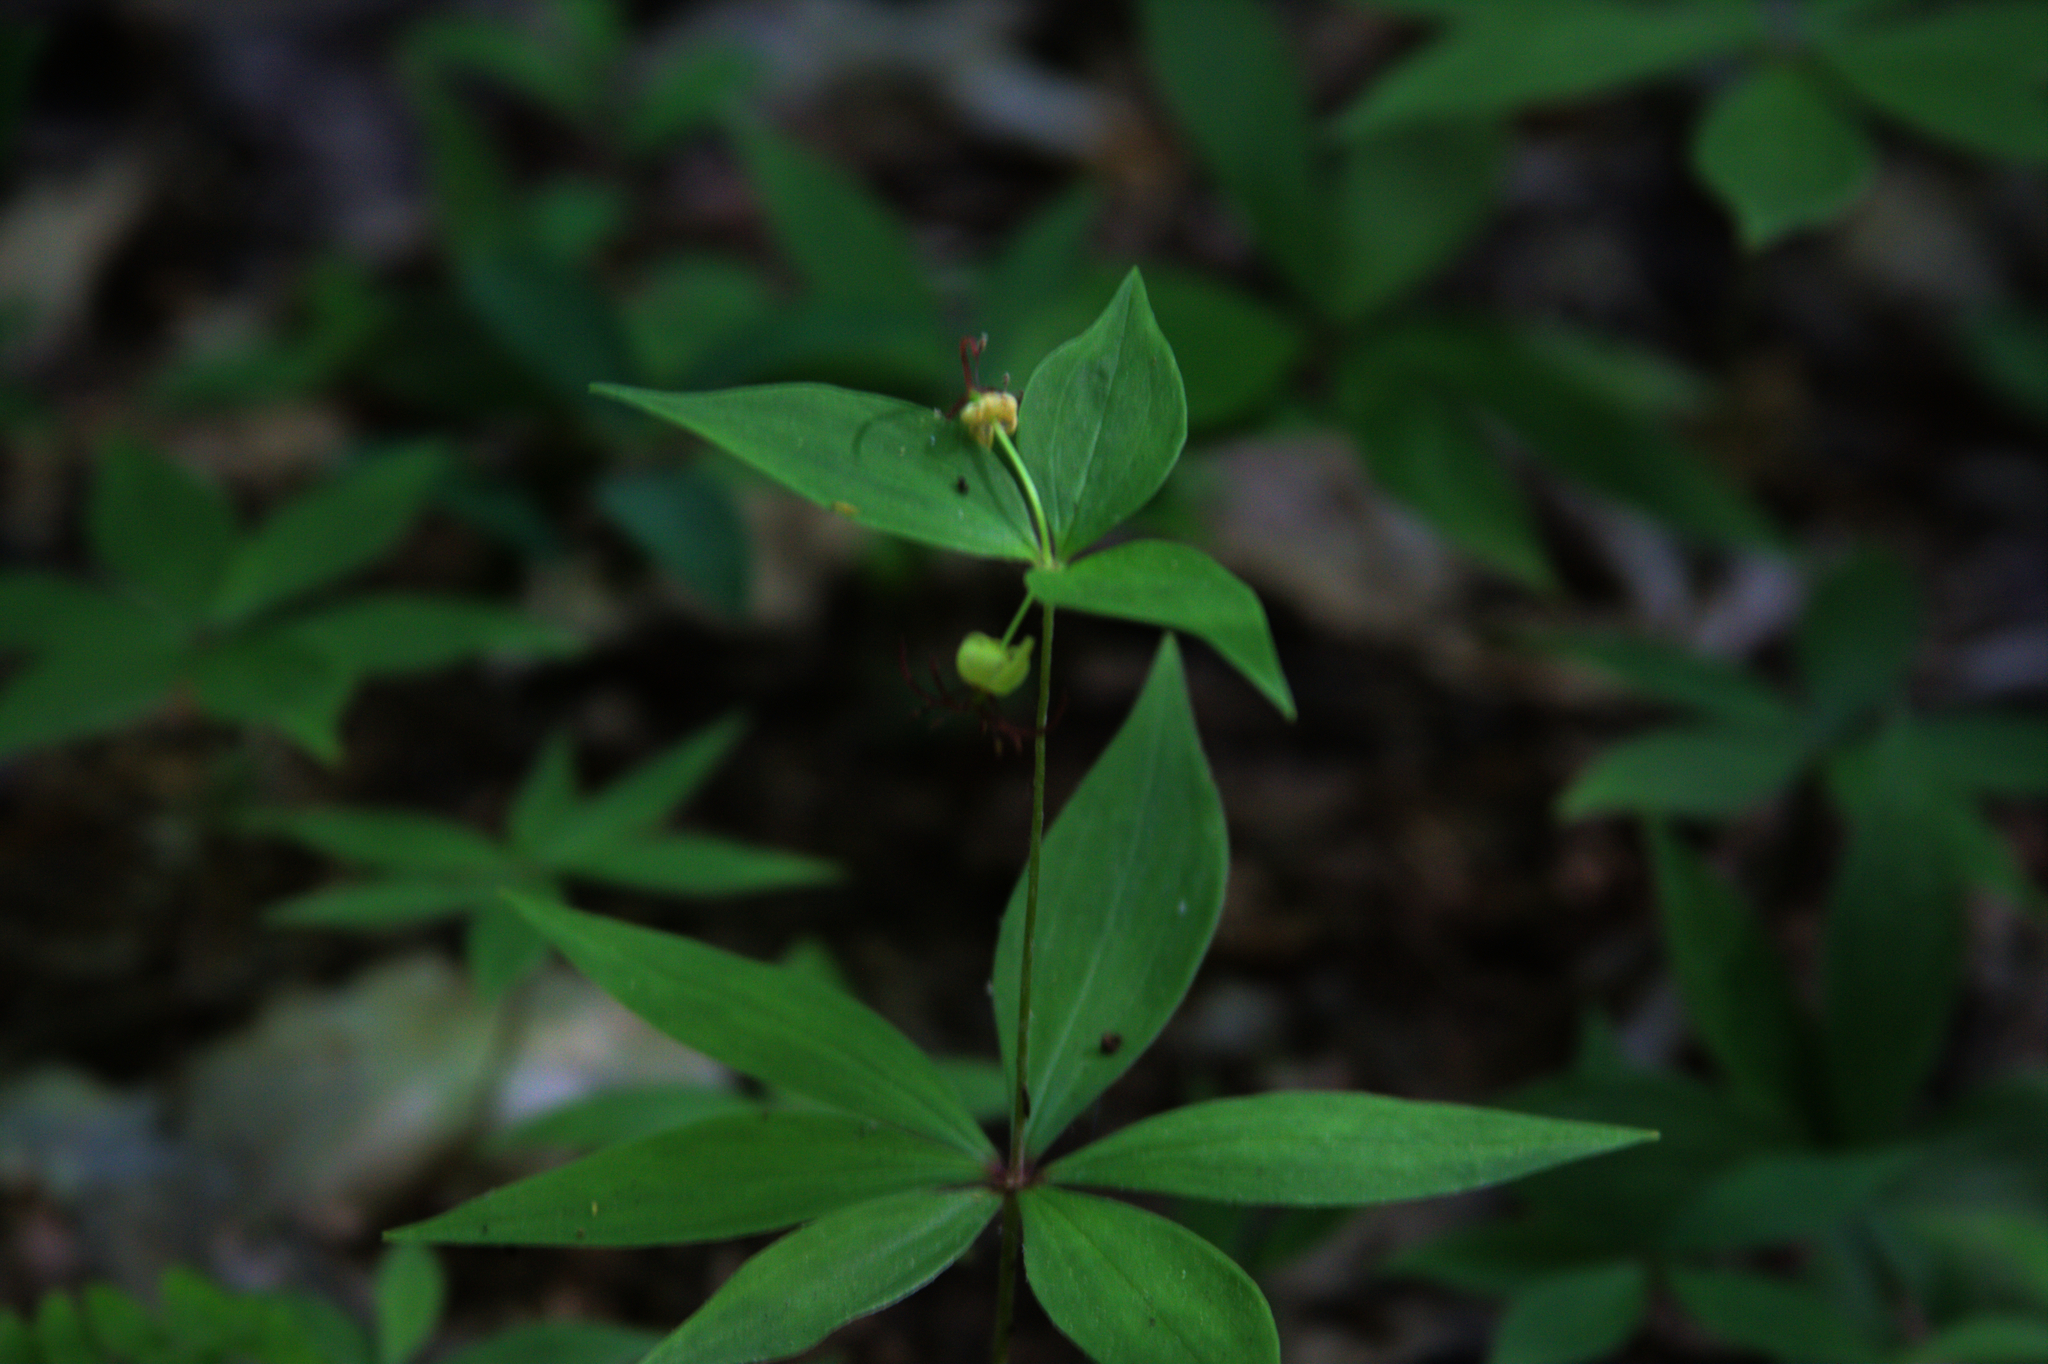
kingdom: Plantae
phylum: Tracheophyta
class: Liliopsida
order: Liliales
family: Liliaceae
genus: Medeola
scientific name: Medeola virginiana
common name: Indian cucumber-root
